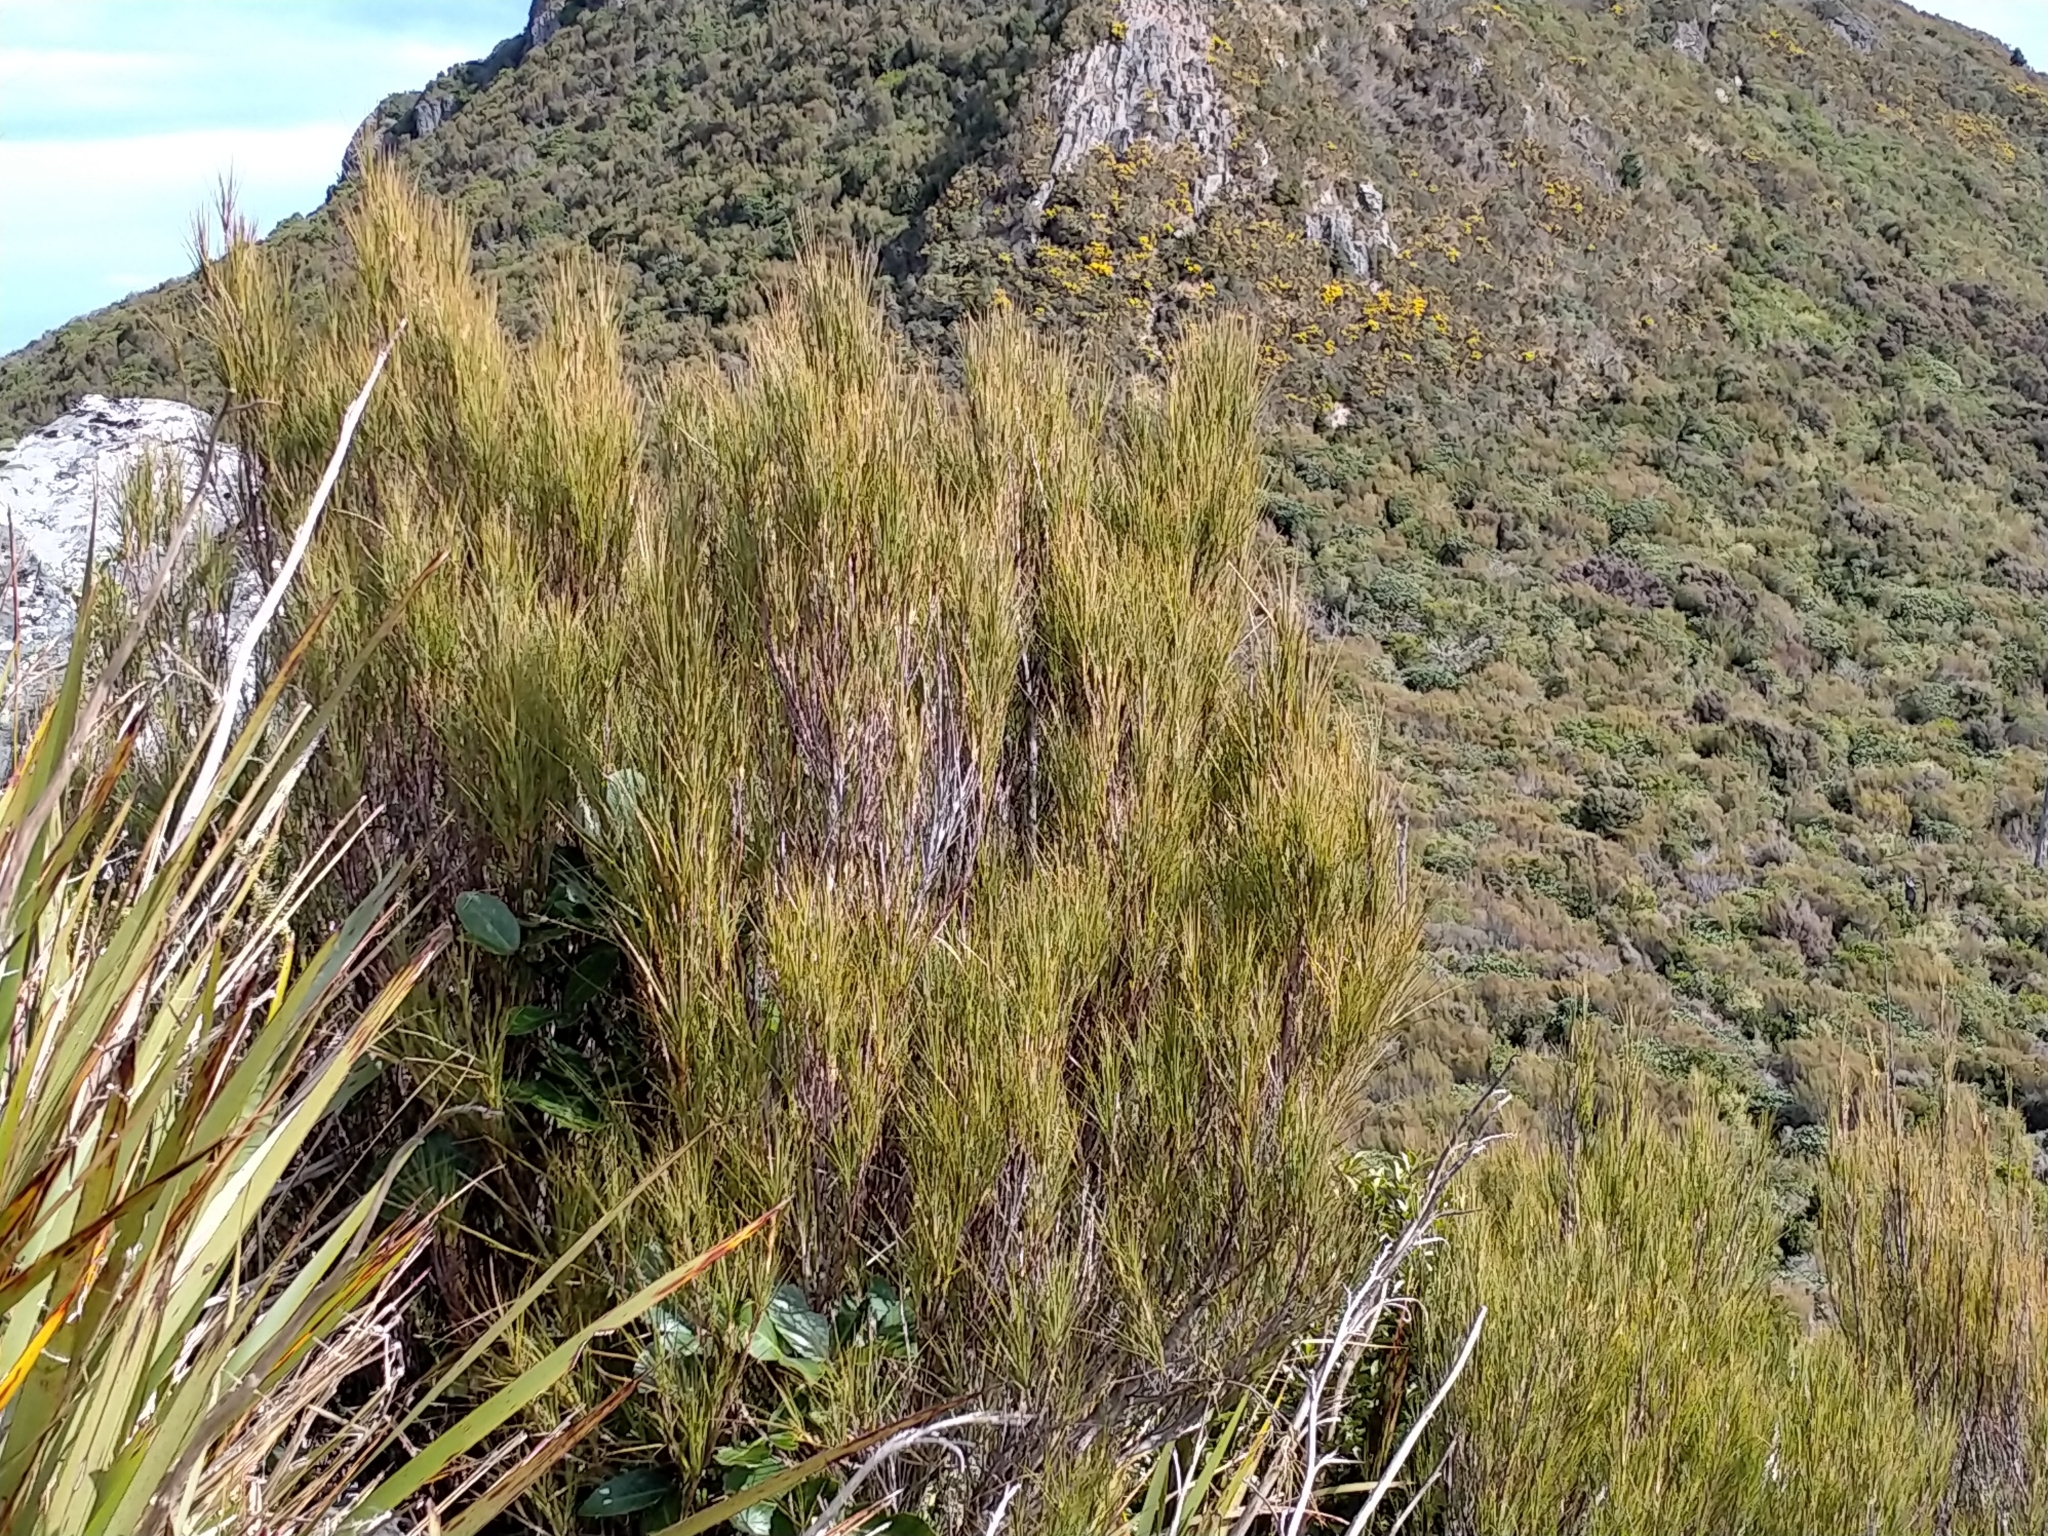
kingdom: Plantae
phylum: Tracheophyta
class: Magnoliopsida
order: Ericales
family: Ericaceae
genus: Dracophyllum
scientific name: Dracophyllum longifolium
